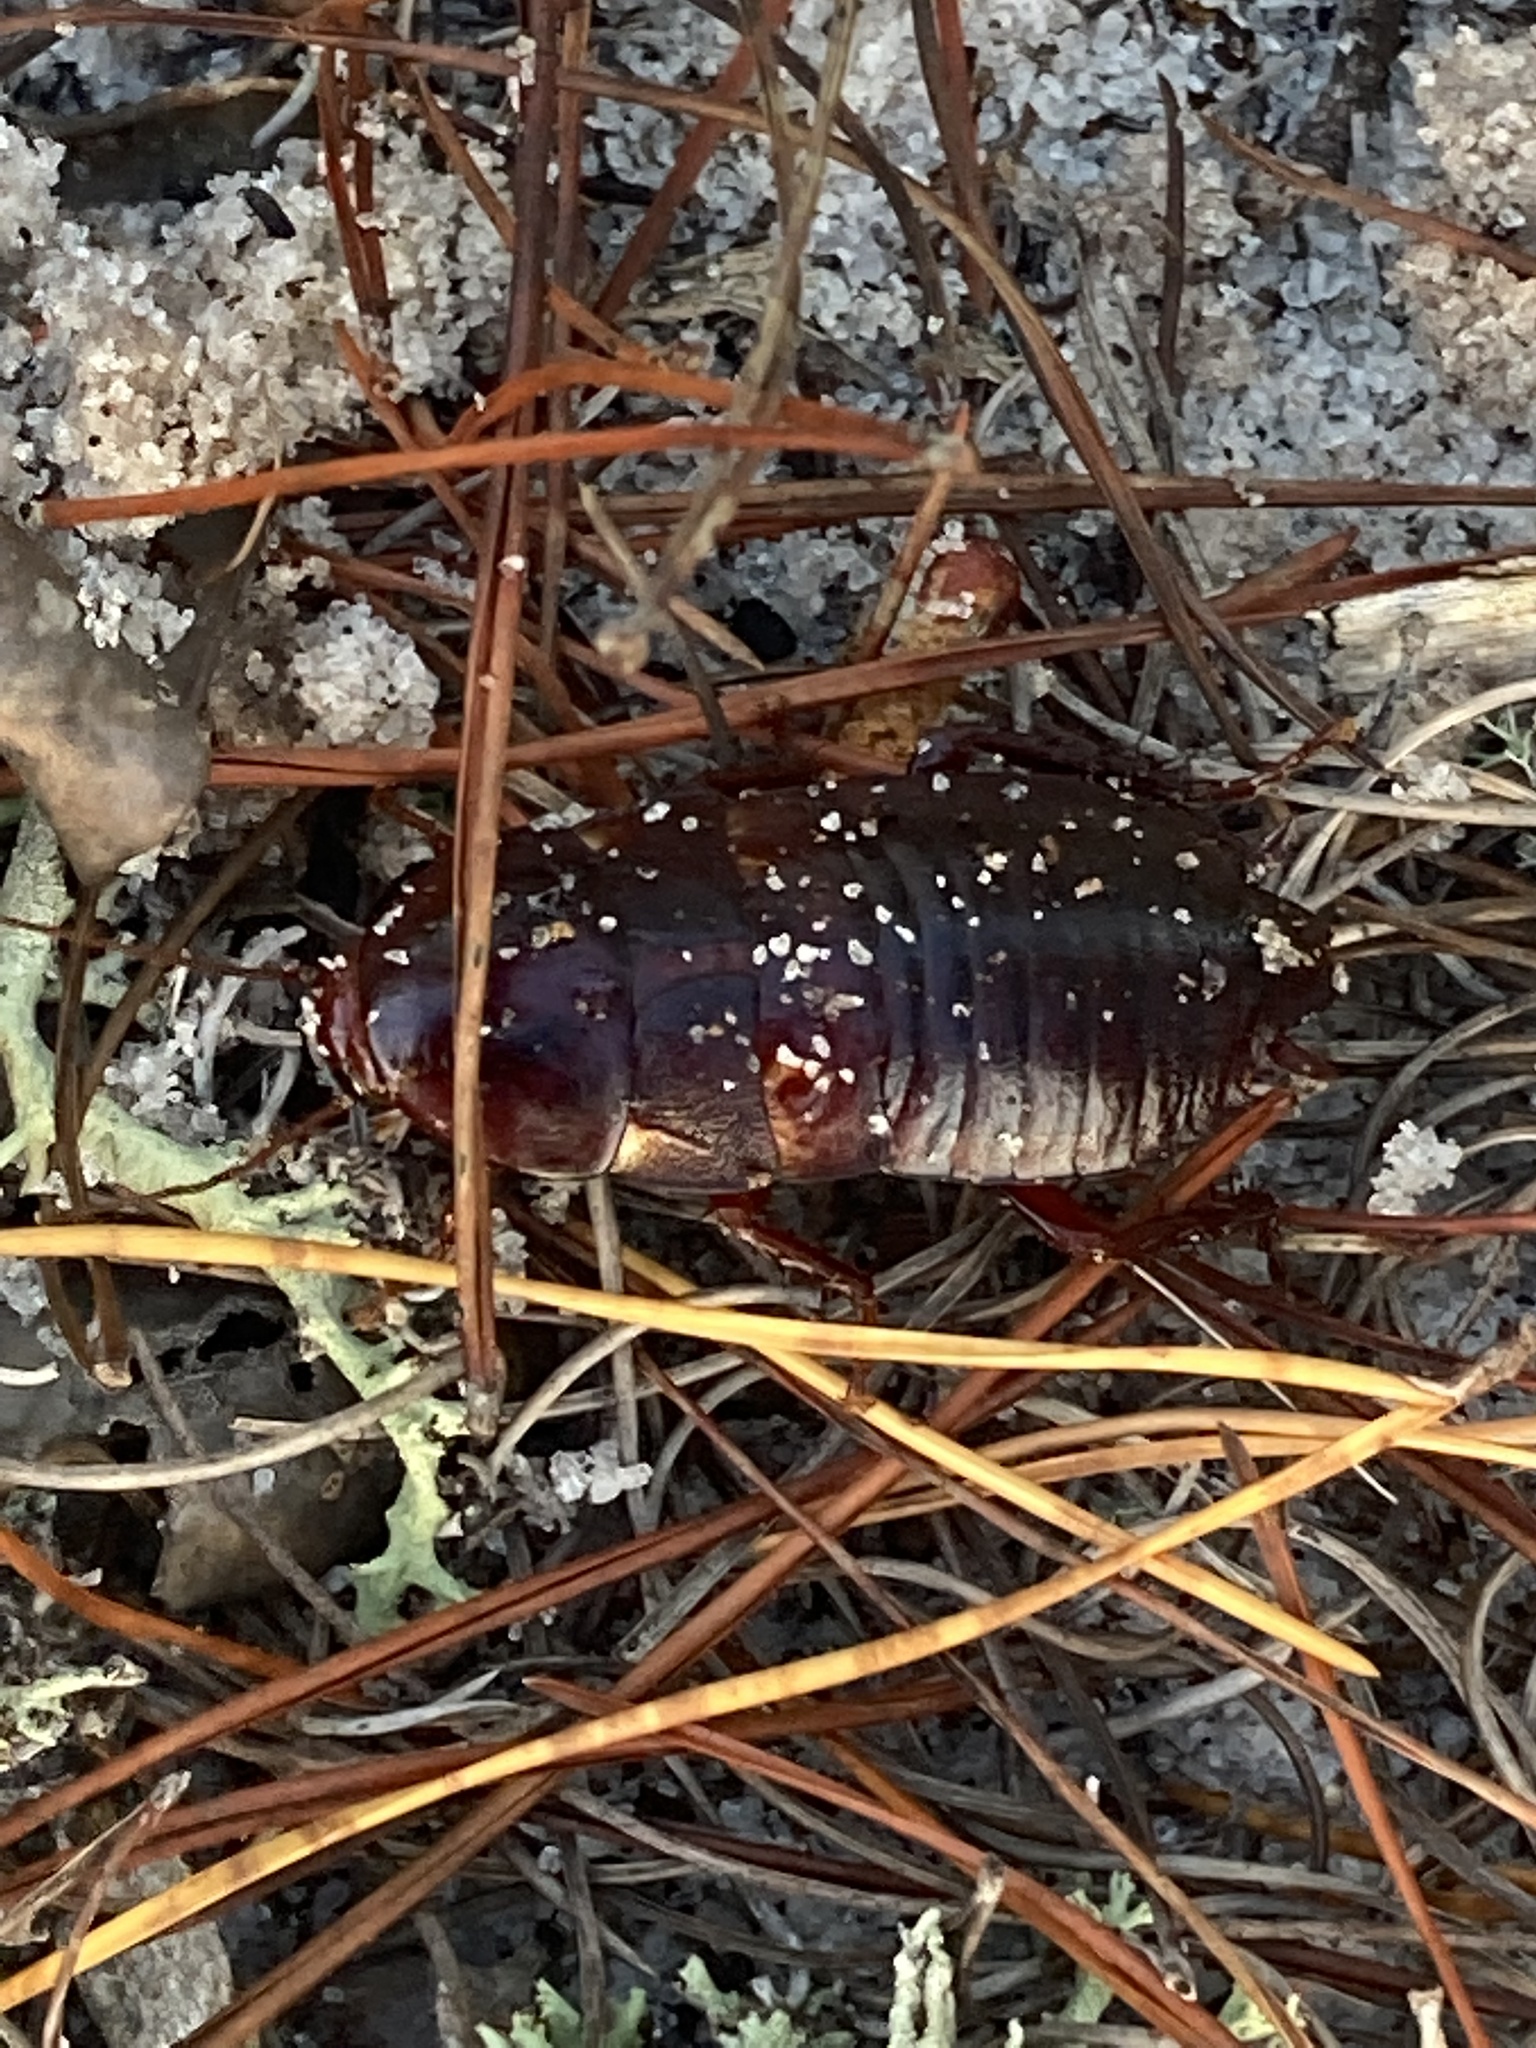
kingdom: Animalia
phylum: Arthropoda
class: Insecta
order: Blattodea
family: Blattidae
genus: Eurycotis
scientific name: Eurycotis floridana
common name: Florida cockroach
